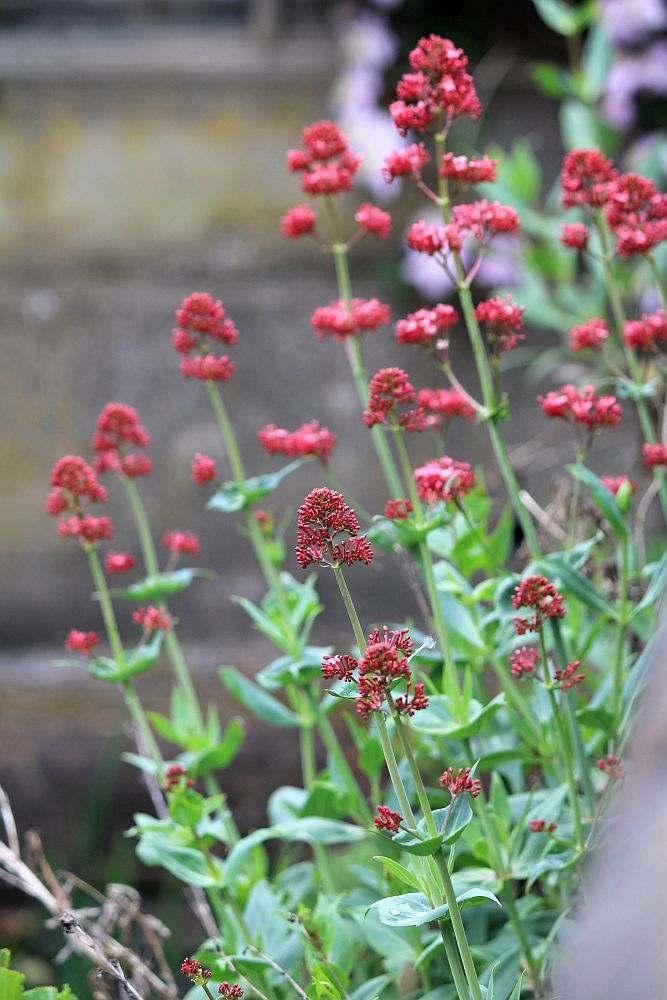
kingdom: Plantae
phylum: Tracheophyta
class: Magnoliopsida
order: Dipsacales
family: Caprifoliaceae
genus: Centranthus
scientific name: Centranthus ruber
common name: Red valerian
